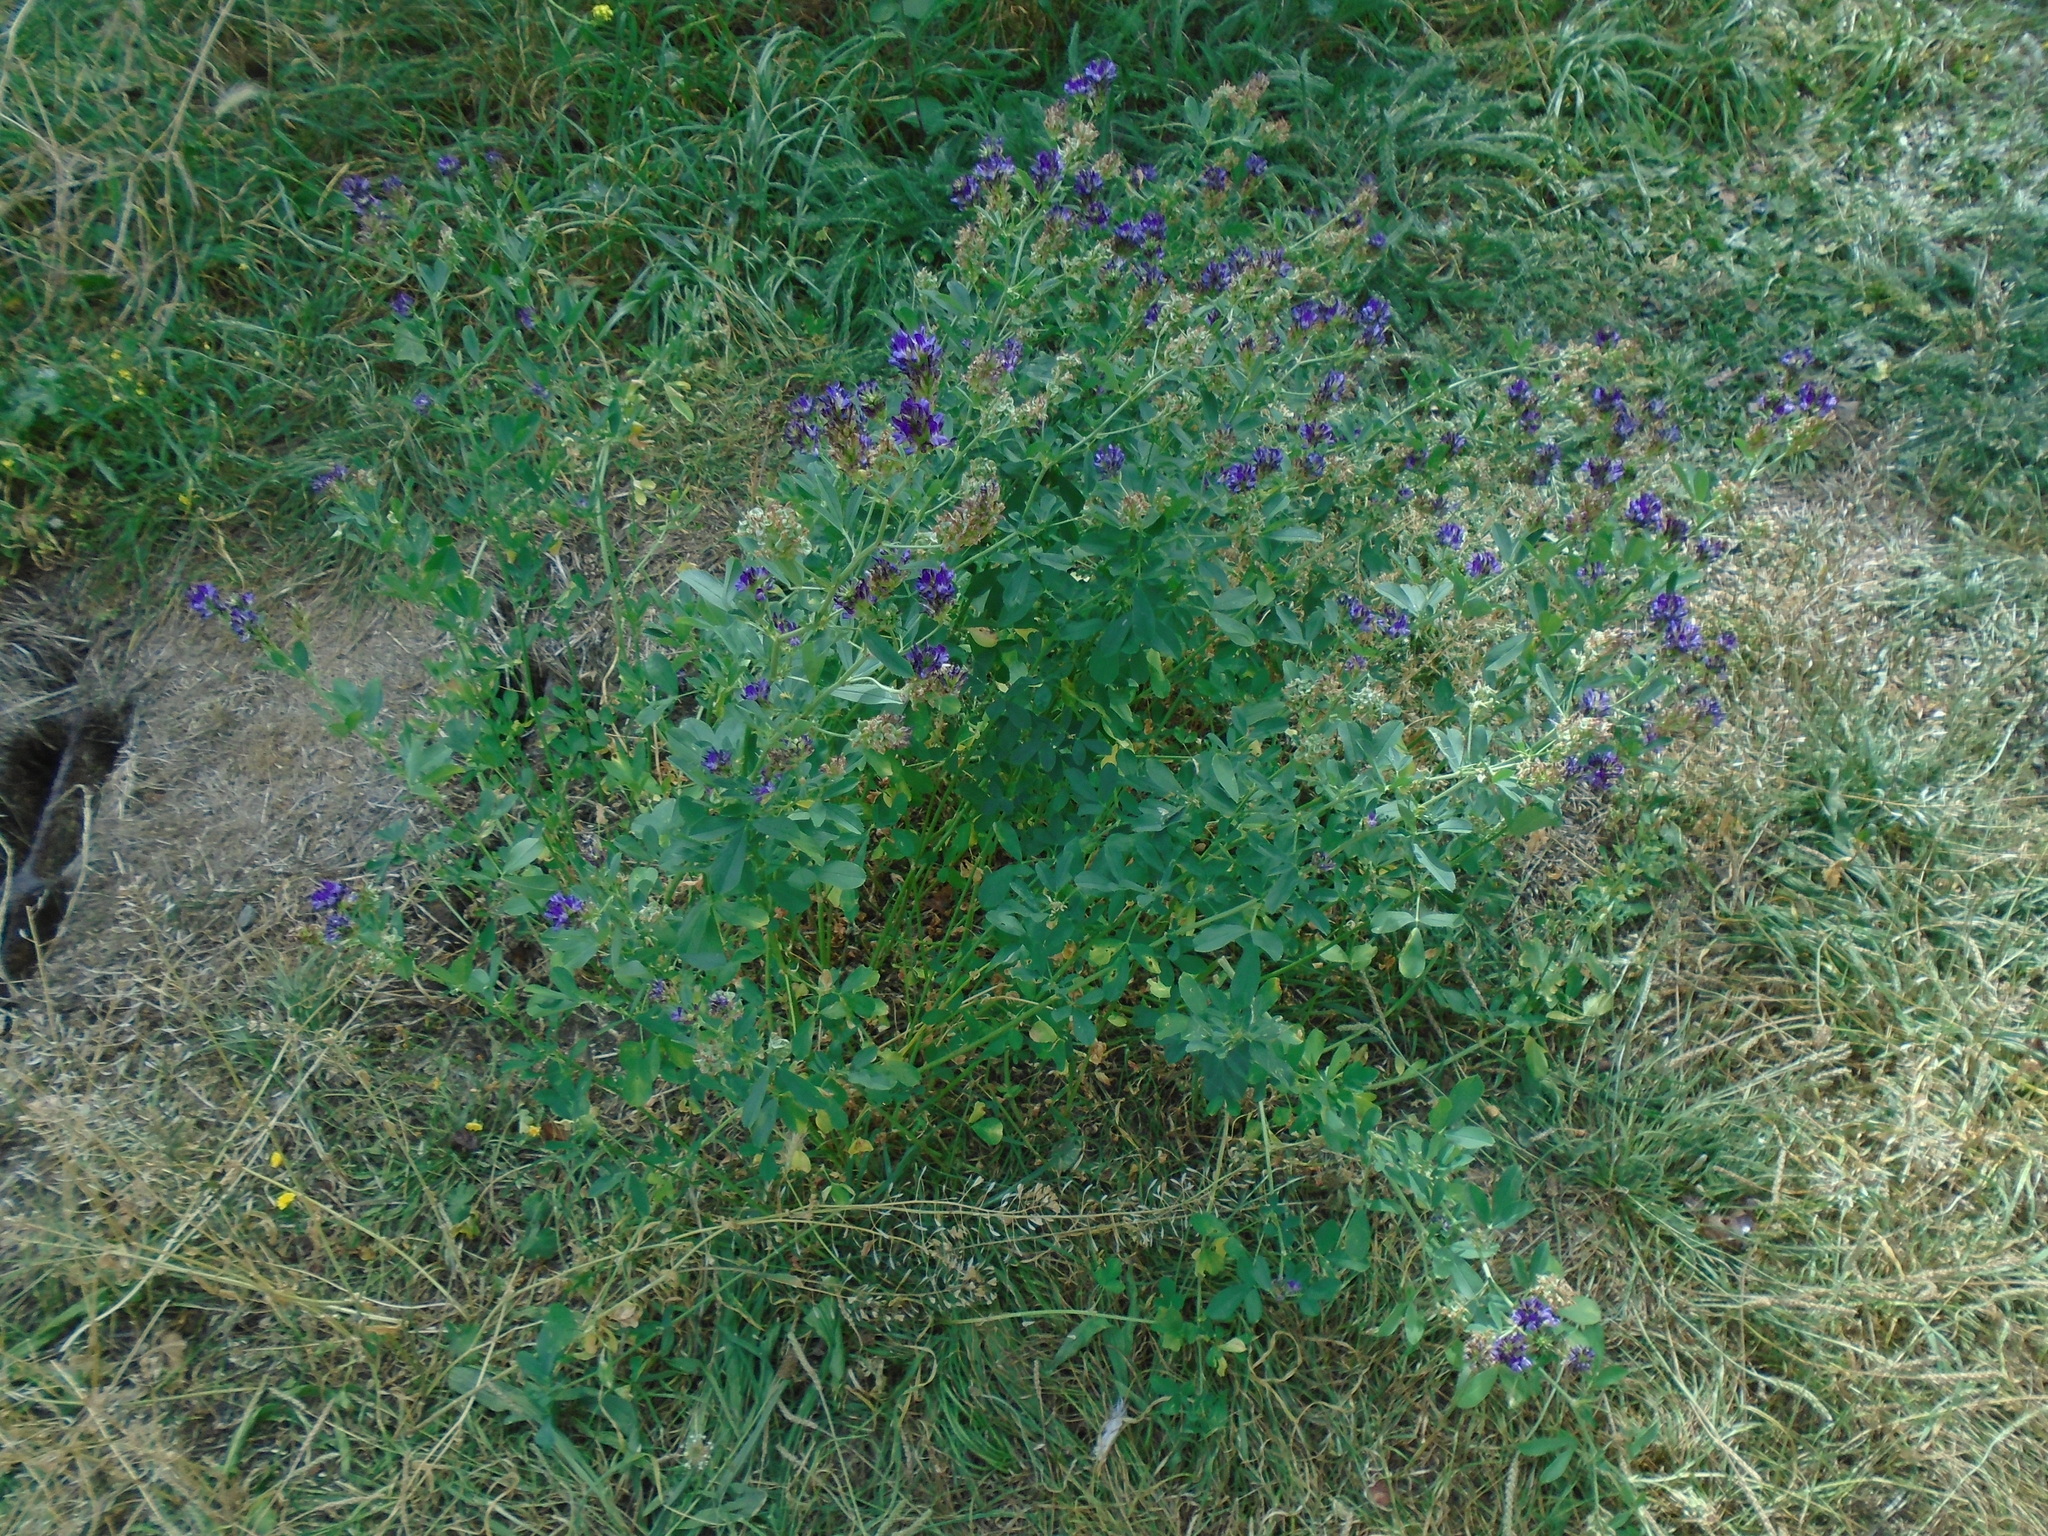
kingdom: Plantae
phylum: Tracheophyta
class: Magnoliopsida
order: Fabales
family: Fabaceae
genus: Medicago
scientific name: Medicago sativa
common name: Alfalfa
